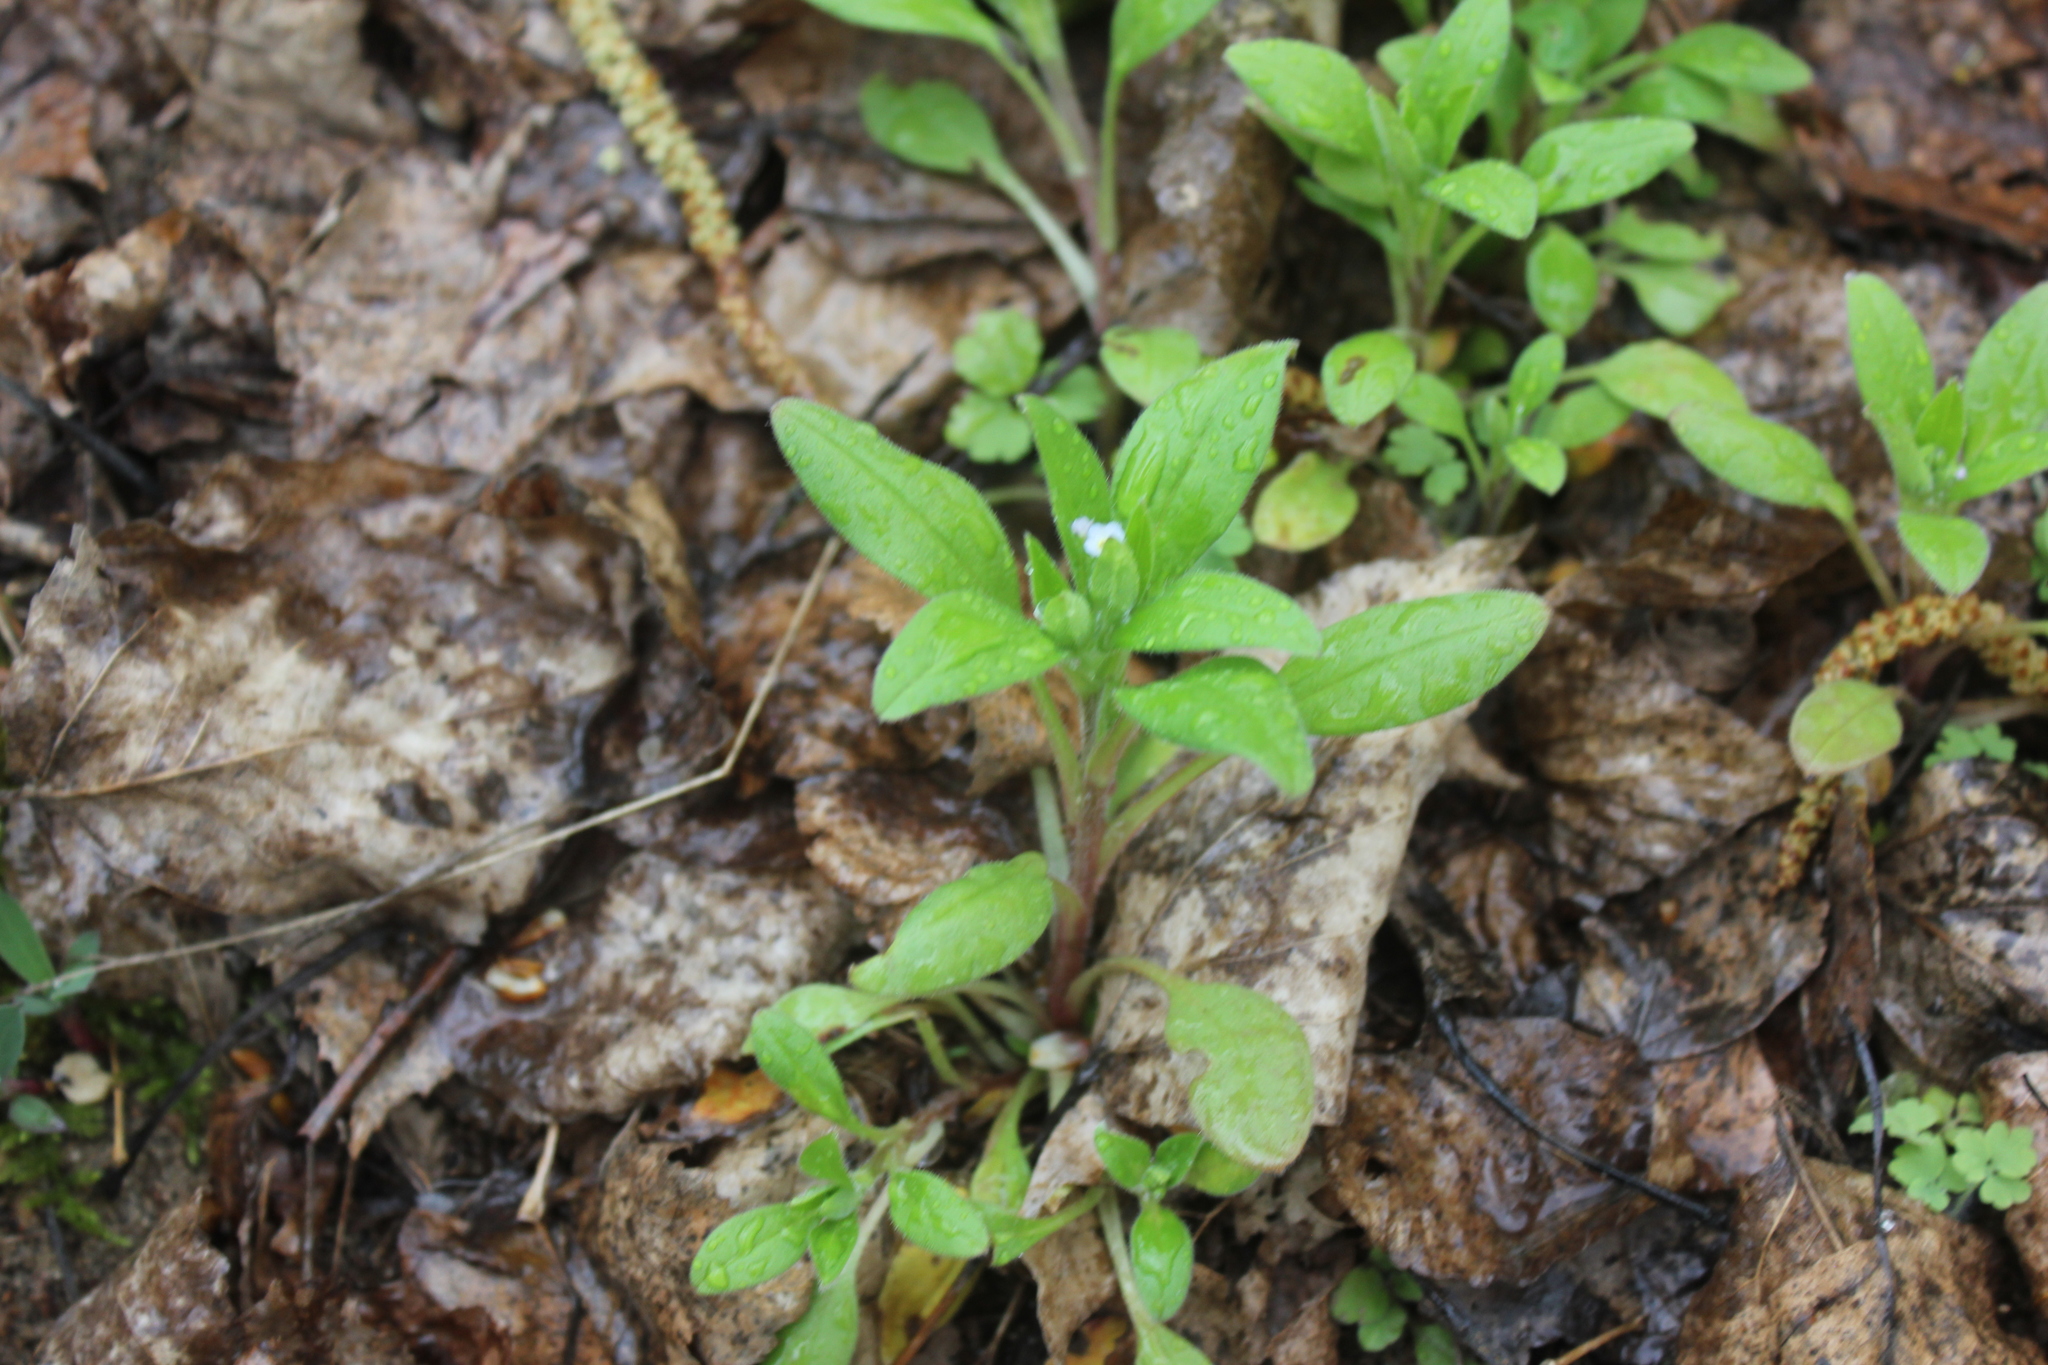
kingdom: Plantae
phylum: Tracheophyta
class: Magnoliopsida
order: Boraginales
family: Boraginaceae
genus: Myosotis
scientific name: Myosotis sparsiflora
